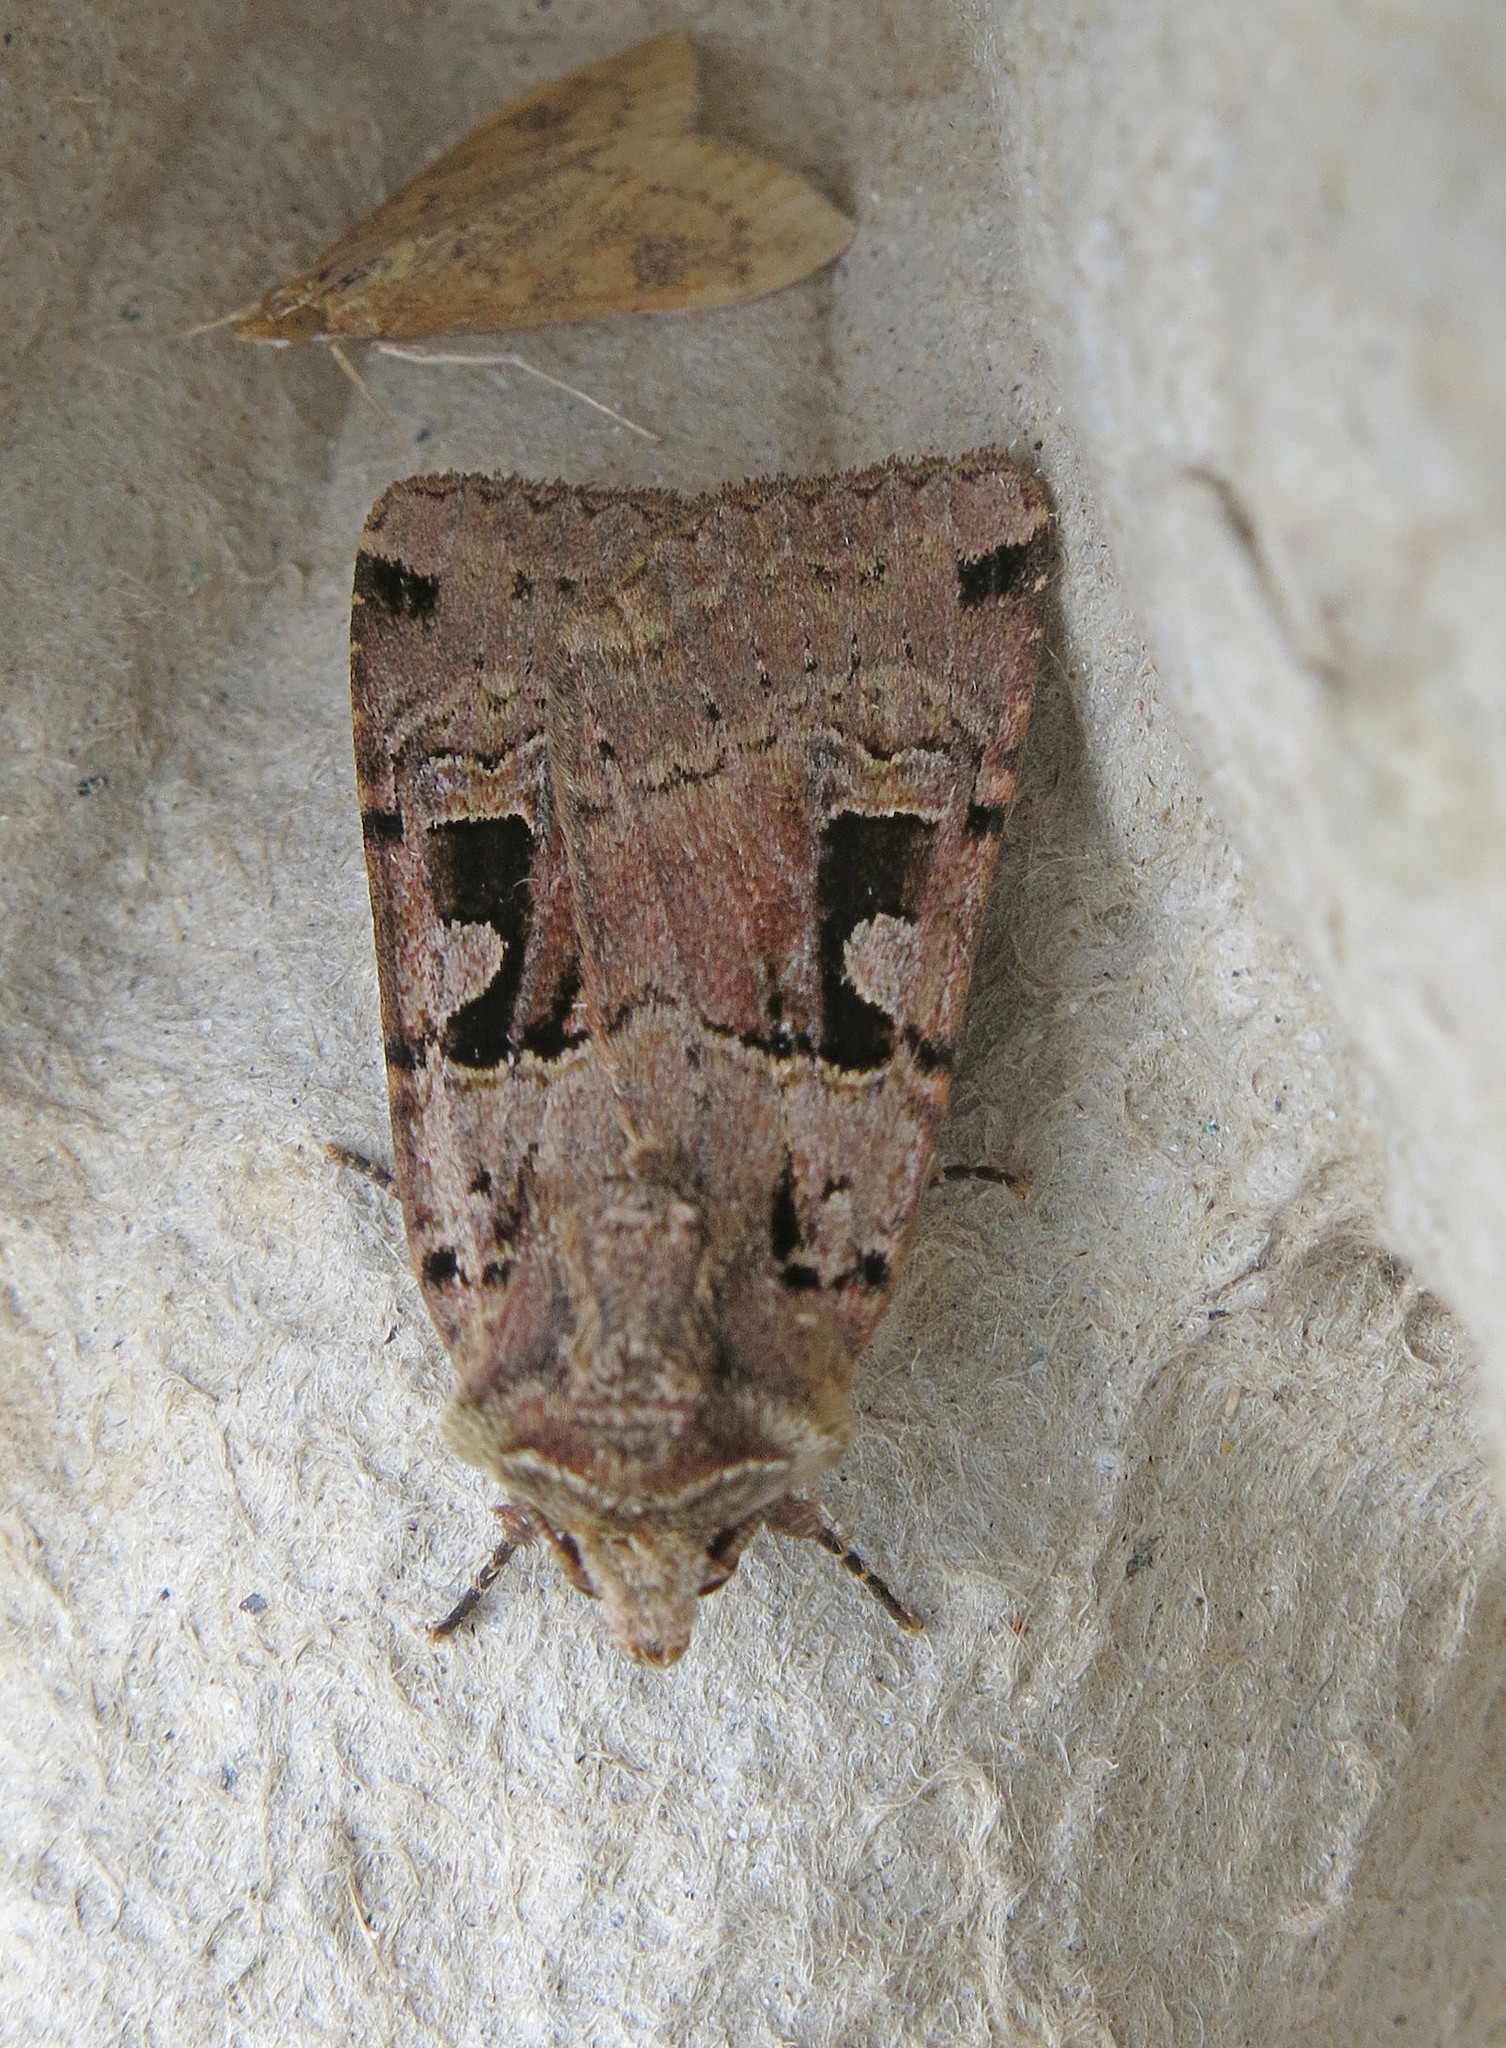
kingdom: Animalia
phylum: Arthropoda
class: Insecta
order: Lepidoptera
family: Noctuidae
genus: Xestia
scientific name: Xestia triangulum
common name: Double square-spot
